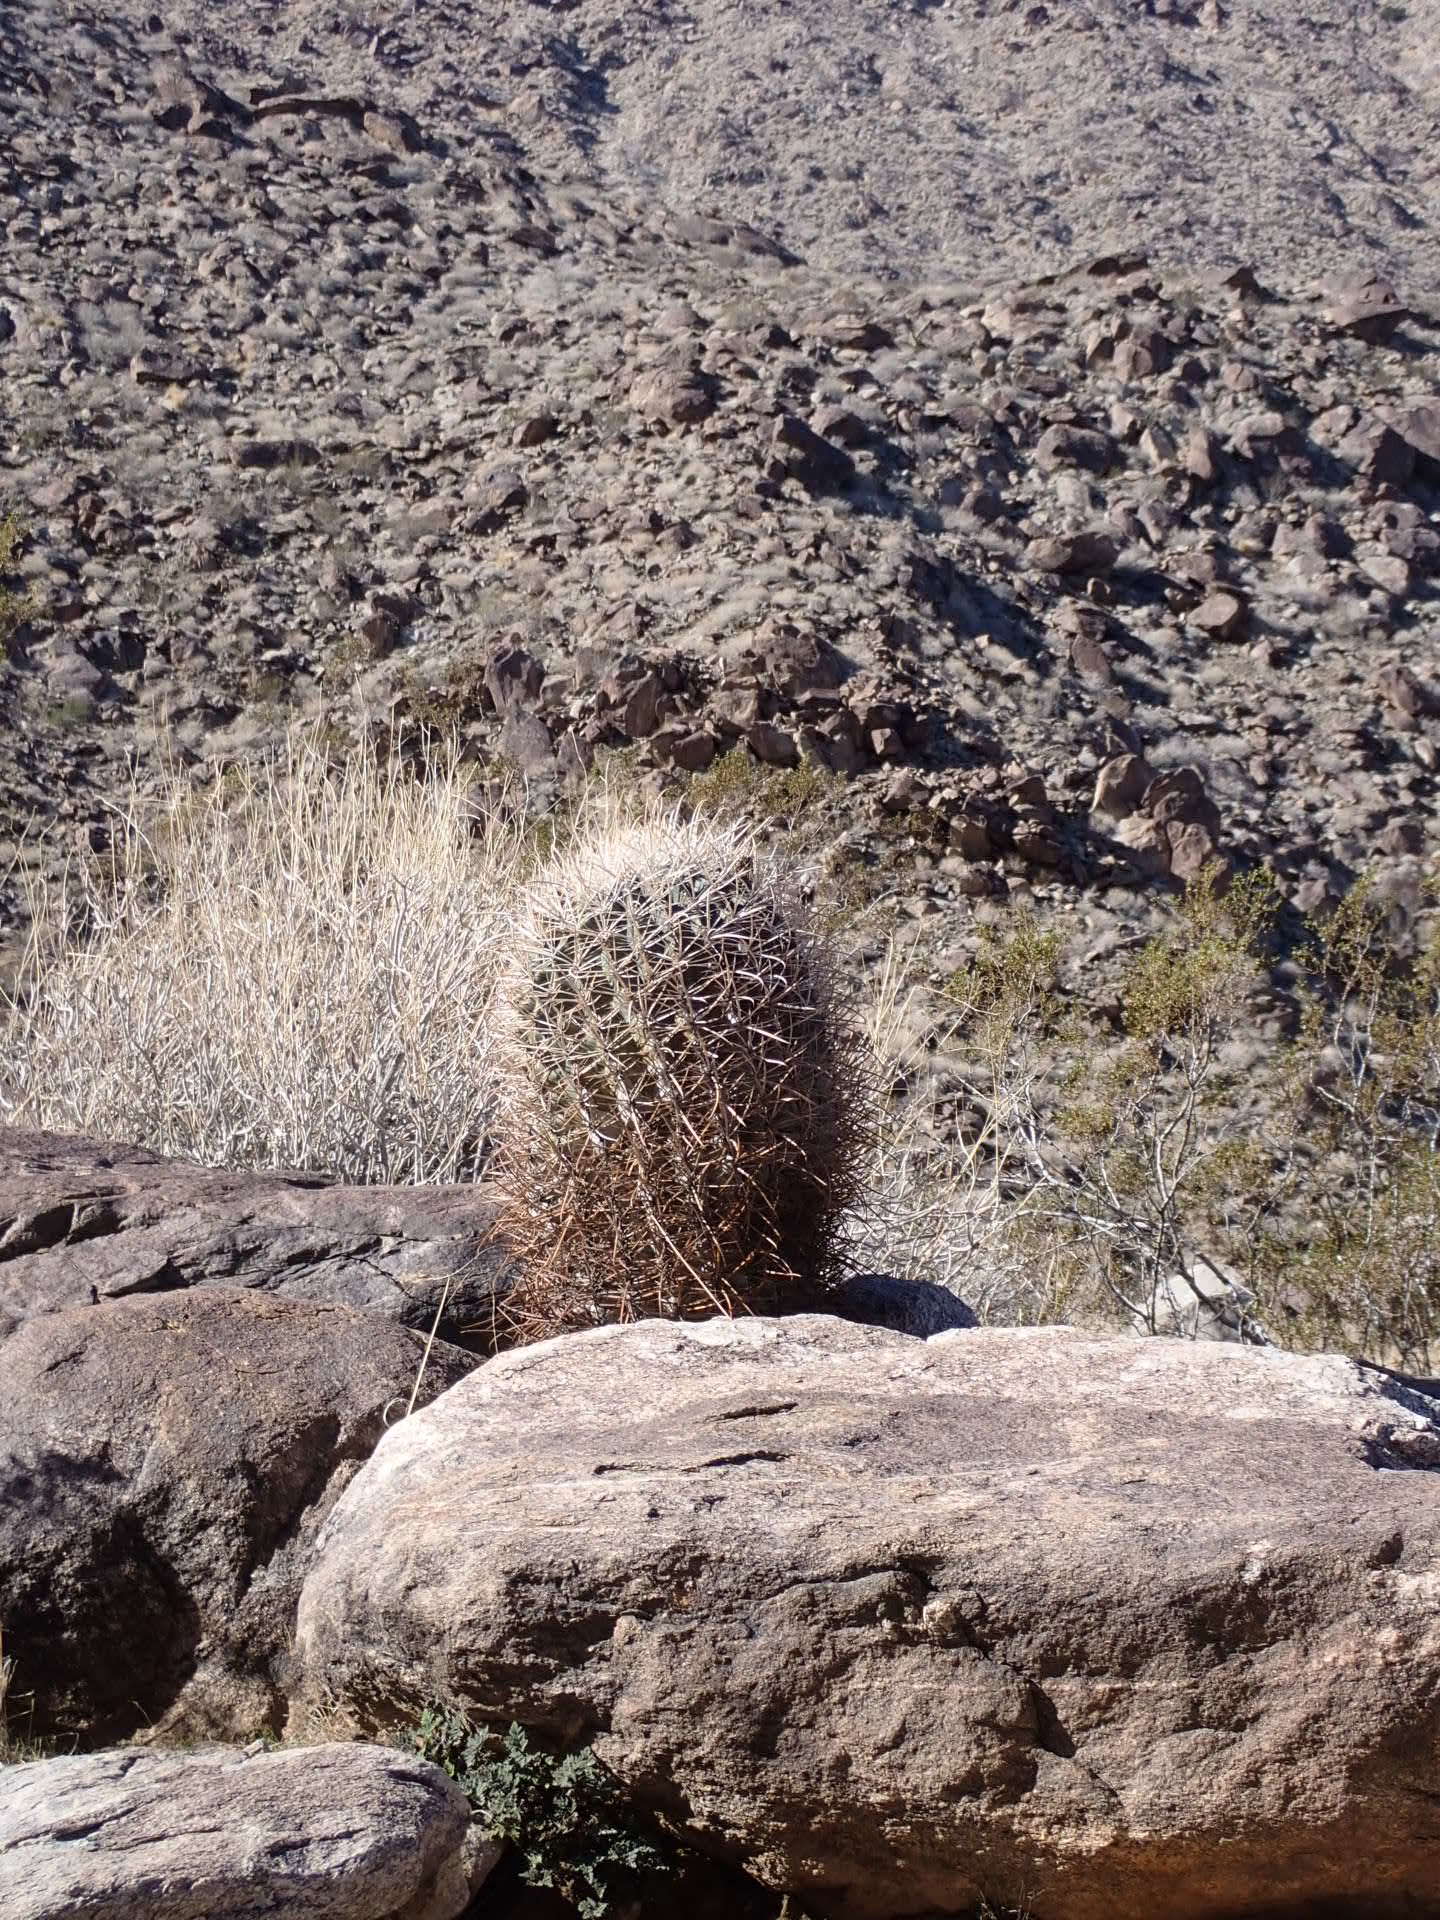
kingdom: Plantae
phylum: Tracheophyta
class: Magnoliopsida
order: Caryophyllales
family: Cactaceae
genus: Ferocactus
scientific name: Ferocactus cylindraceus
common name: California barrel cactus
